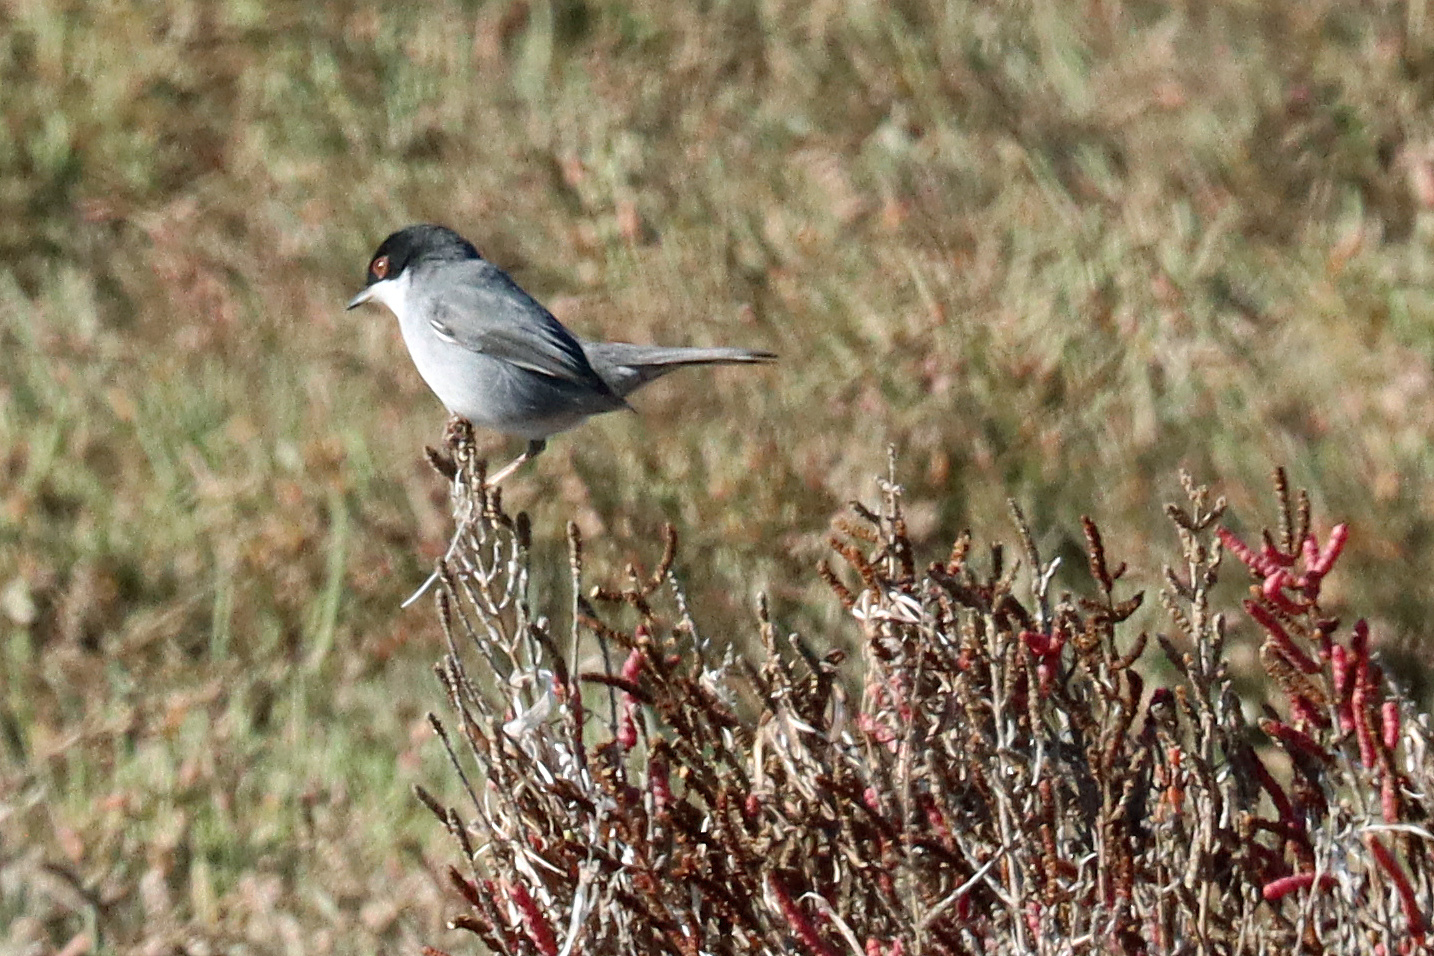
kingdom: Animalia
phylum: Chordata
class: Aves
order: Passeriformes
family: Sylviidae
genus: Curruca
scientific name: Curruca melanocephala
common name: Sardinian warbler
